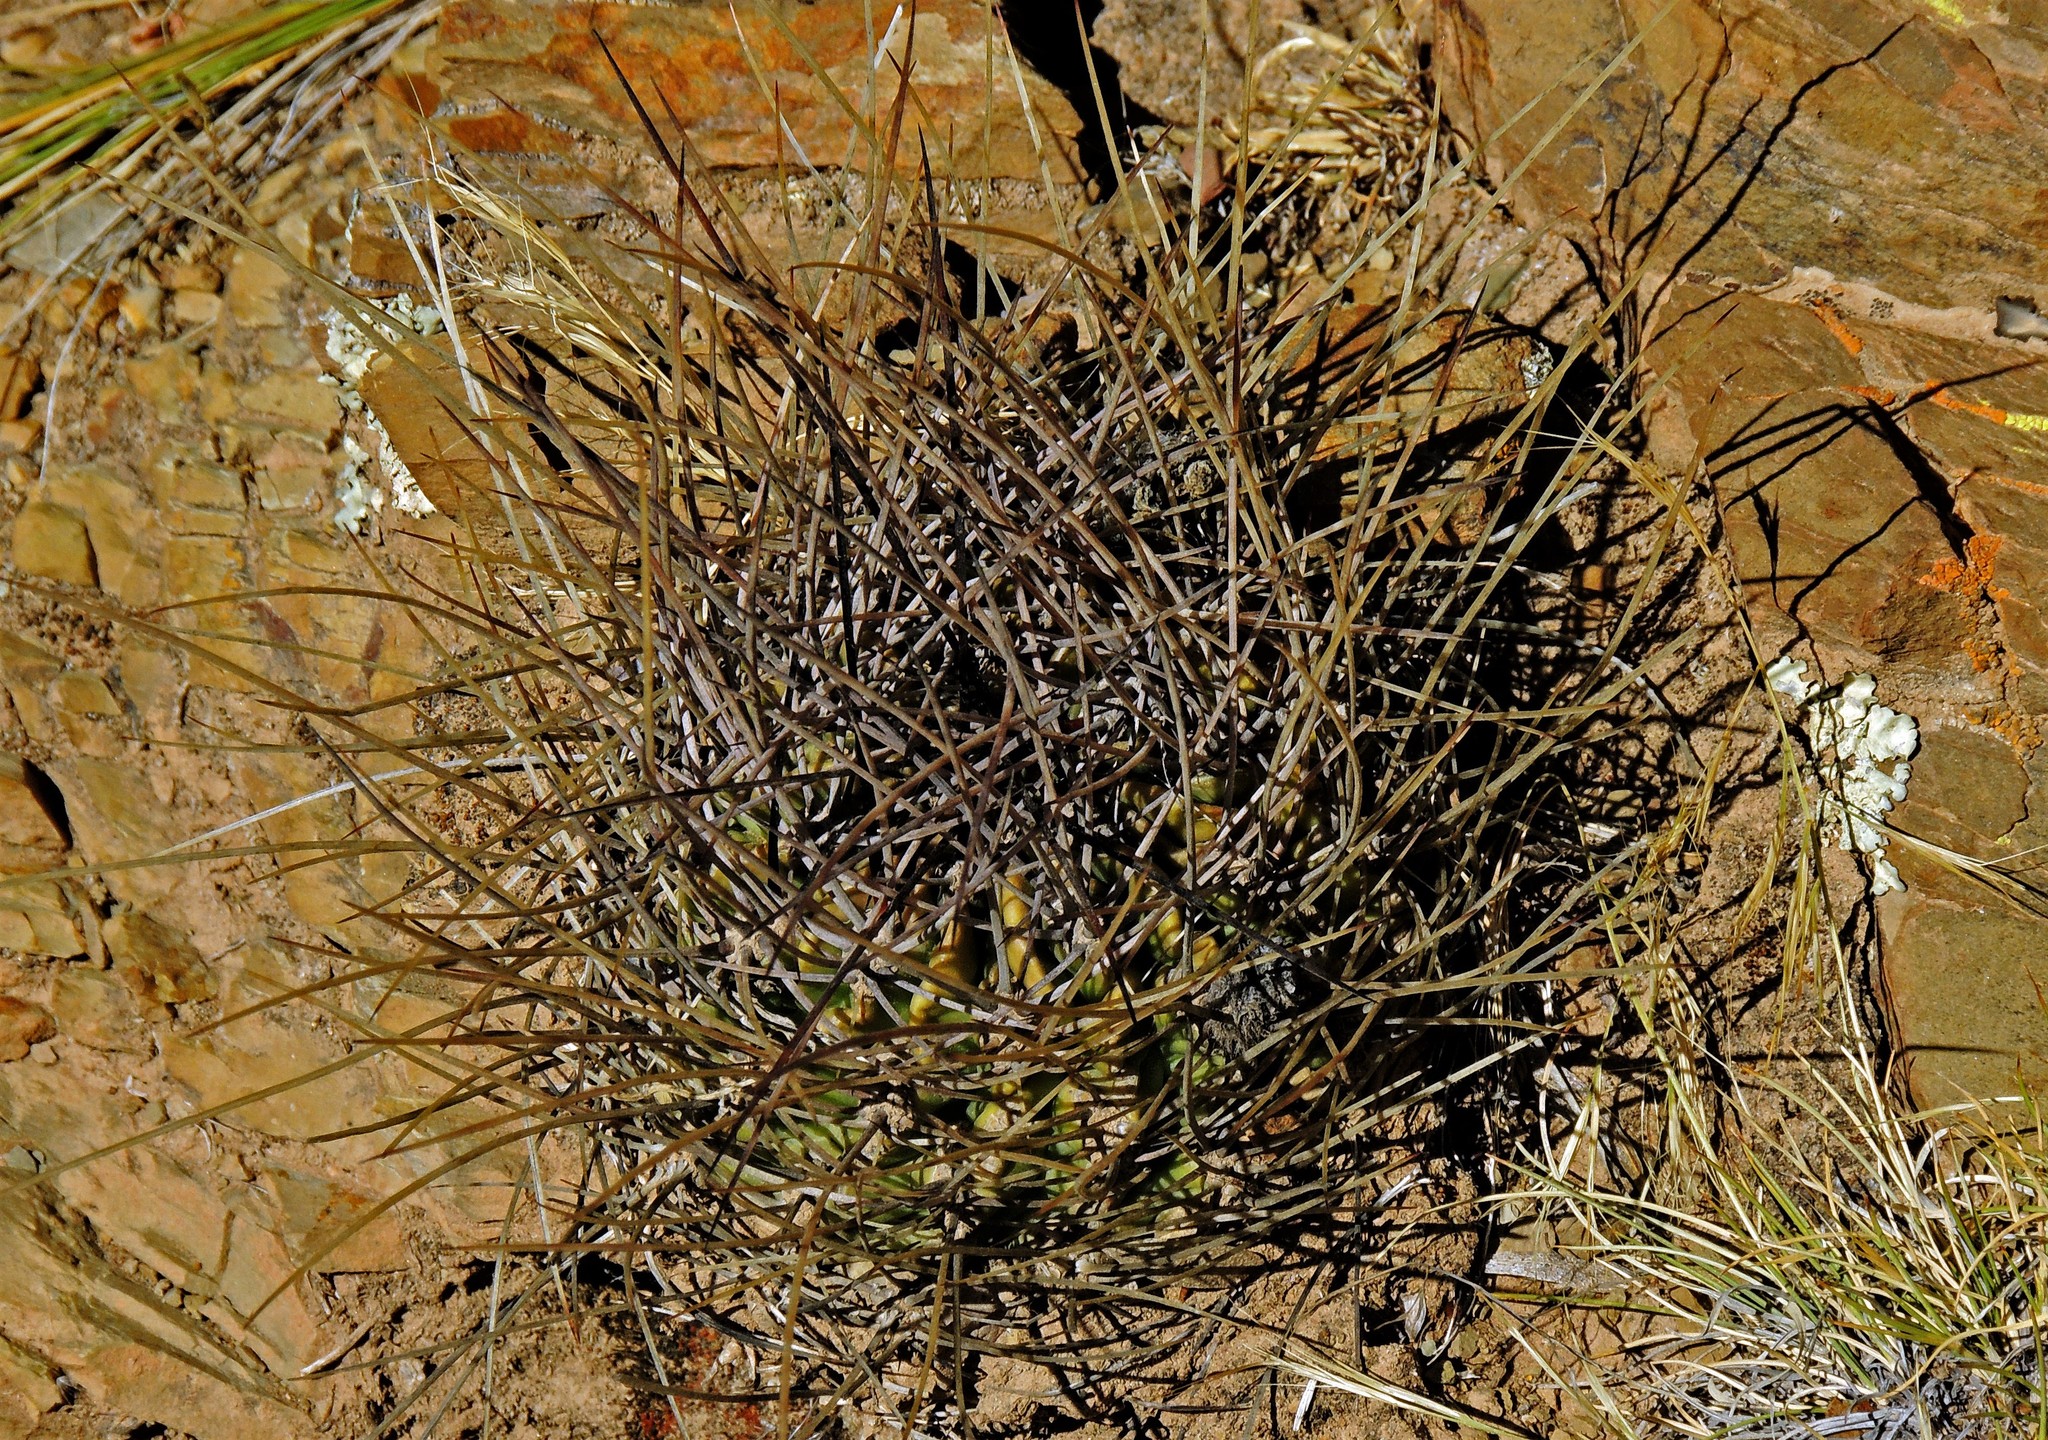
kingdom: Plantae
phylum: Tracheophyta
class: Magnoliopsida
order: Caryophyllales
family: Cactaceae
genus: Lobivia
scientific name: Lobivia ferox
